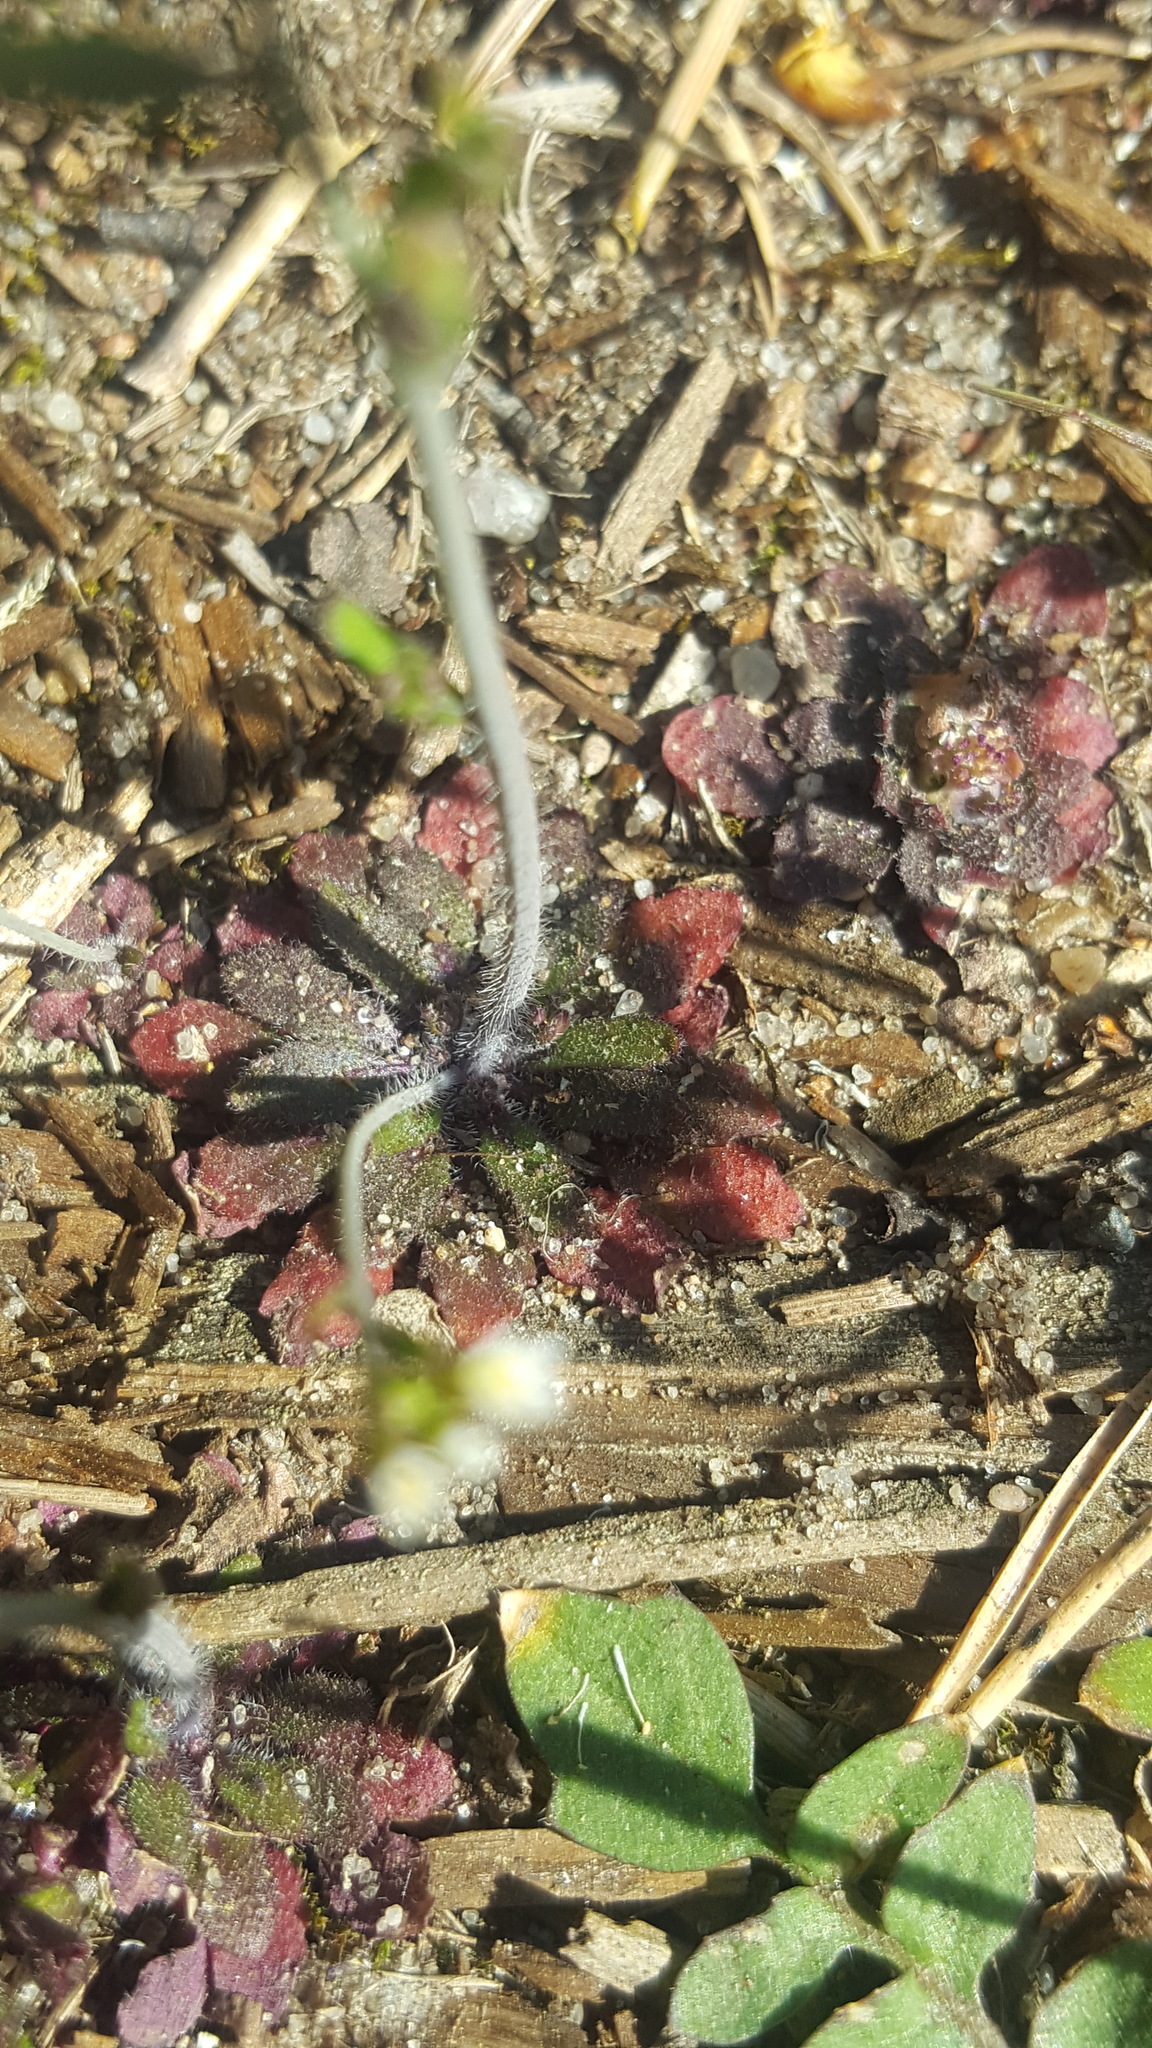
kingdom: Plantae
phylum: Tracheophyta
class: Magnoliopsida
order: Brassicales
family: Brassicaceae
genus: Arabidopsis
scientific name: Arabidopsis thaliana
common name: Thale cress
